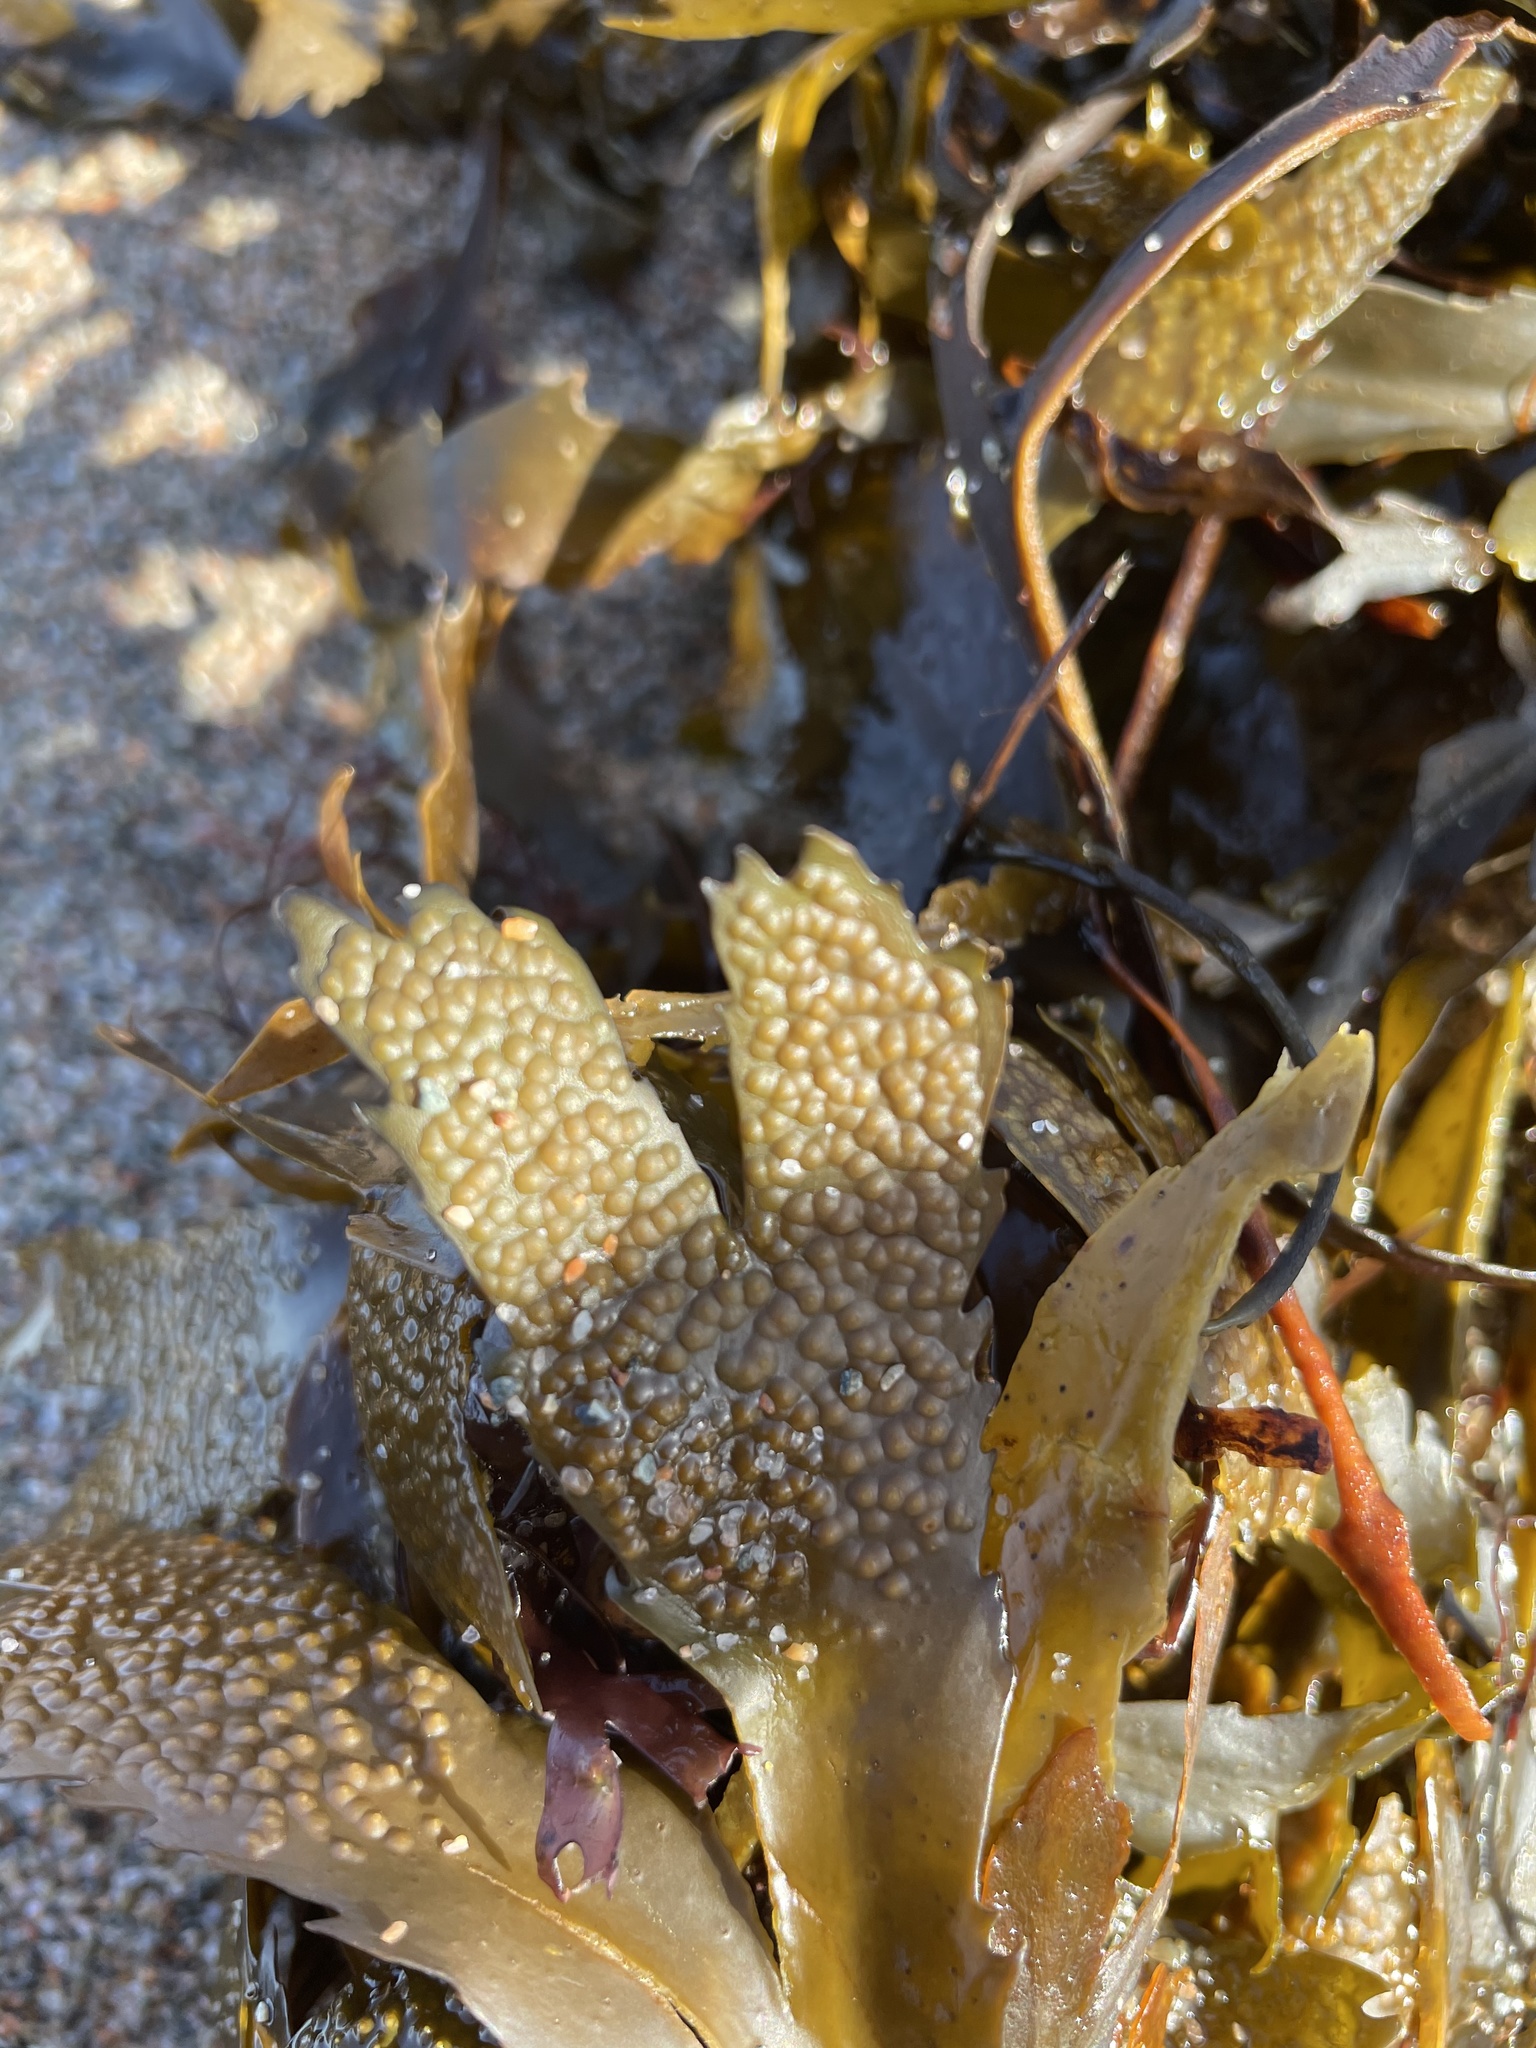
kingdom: Chromista
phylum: Ochrophyta
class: Phaeophyceae
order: Fucales
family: Fucaceae
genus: Fucus
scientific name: Fucus serratus
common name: Toothed wrack
